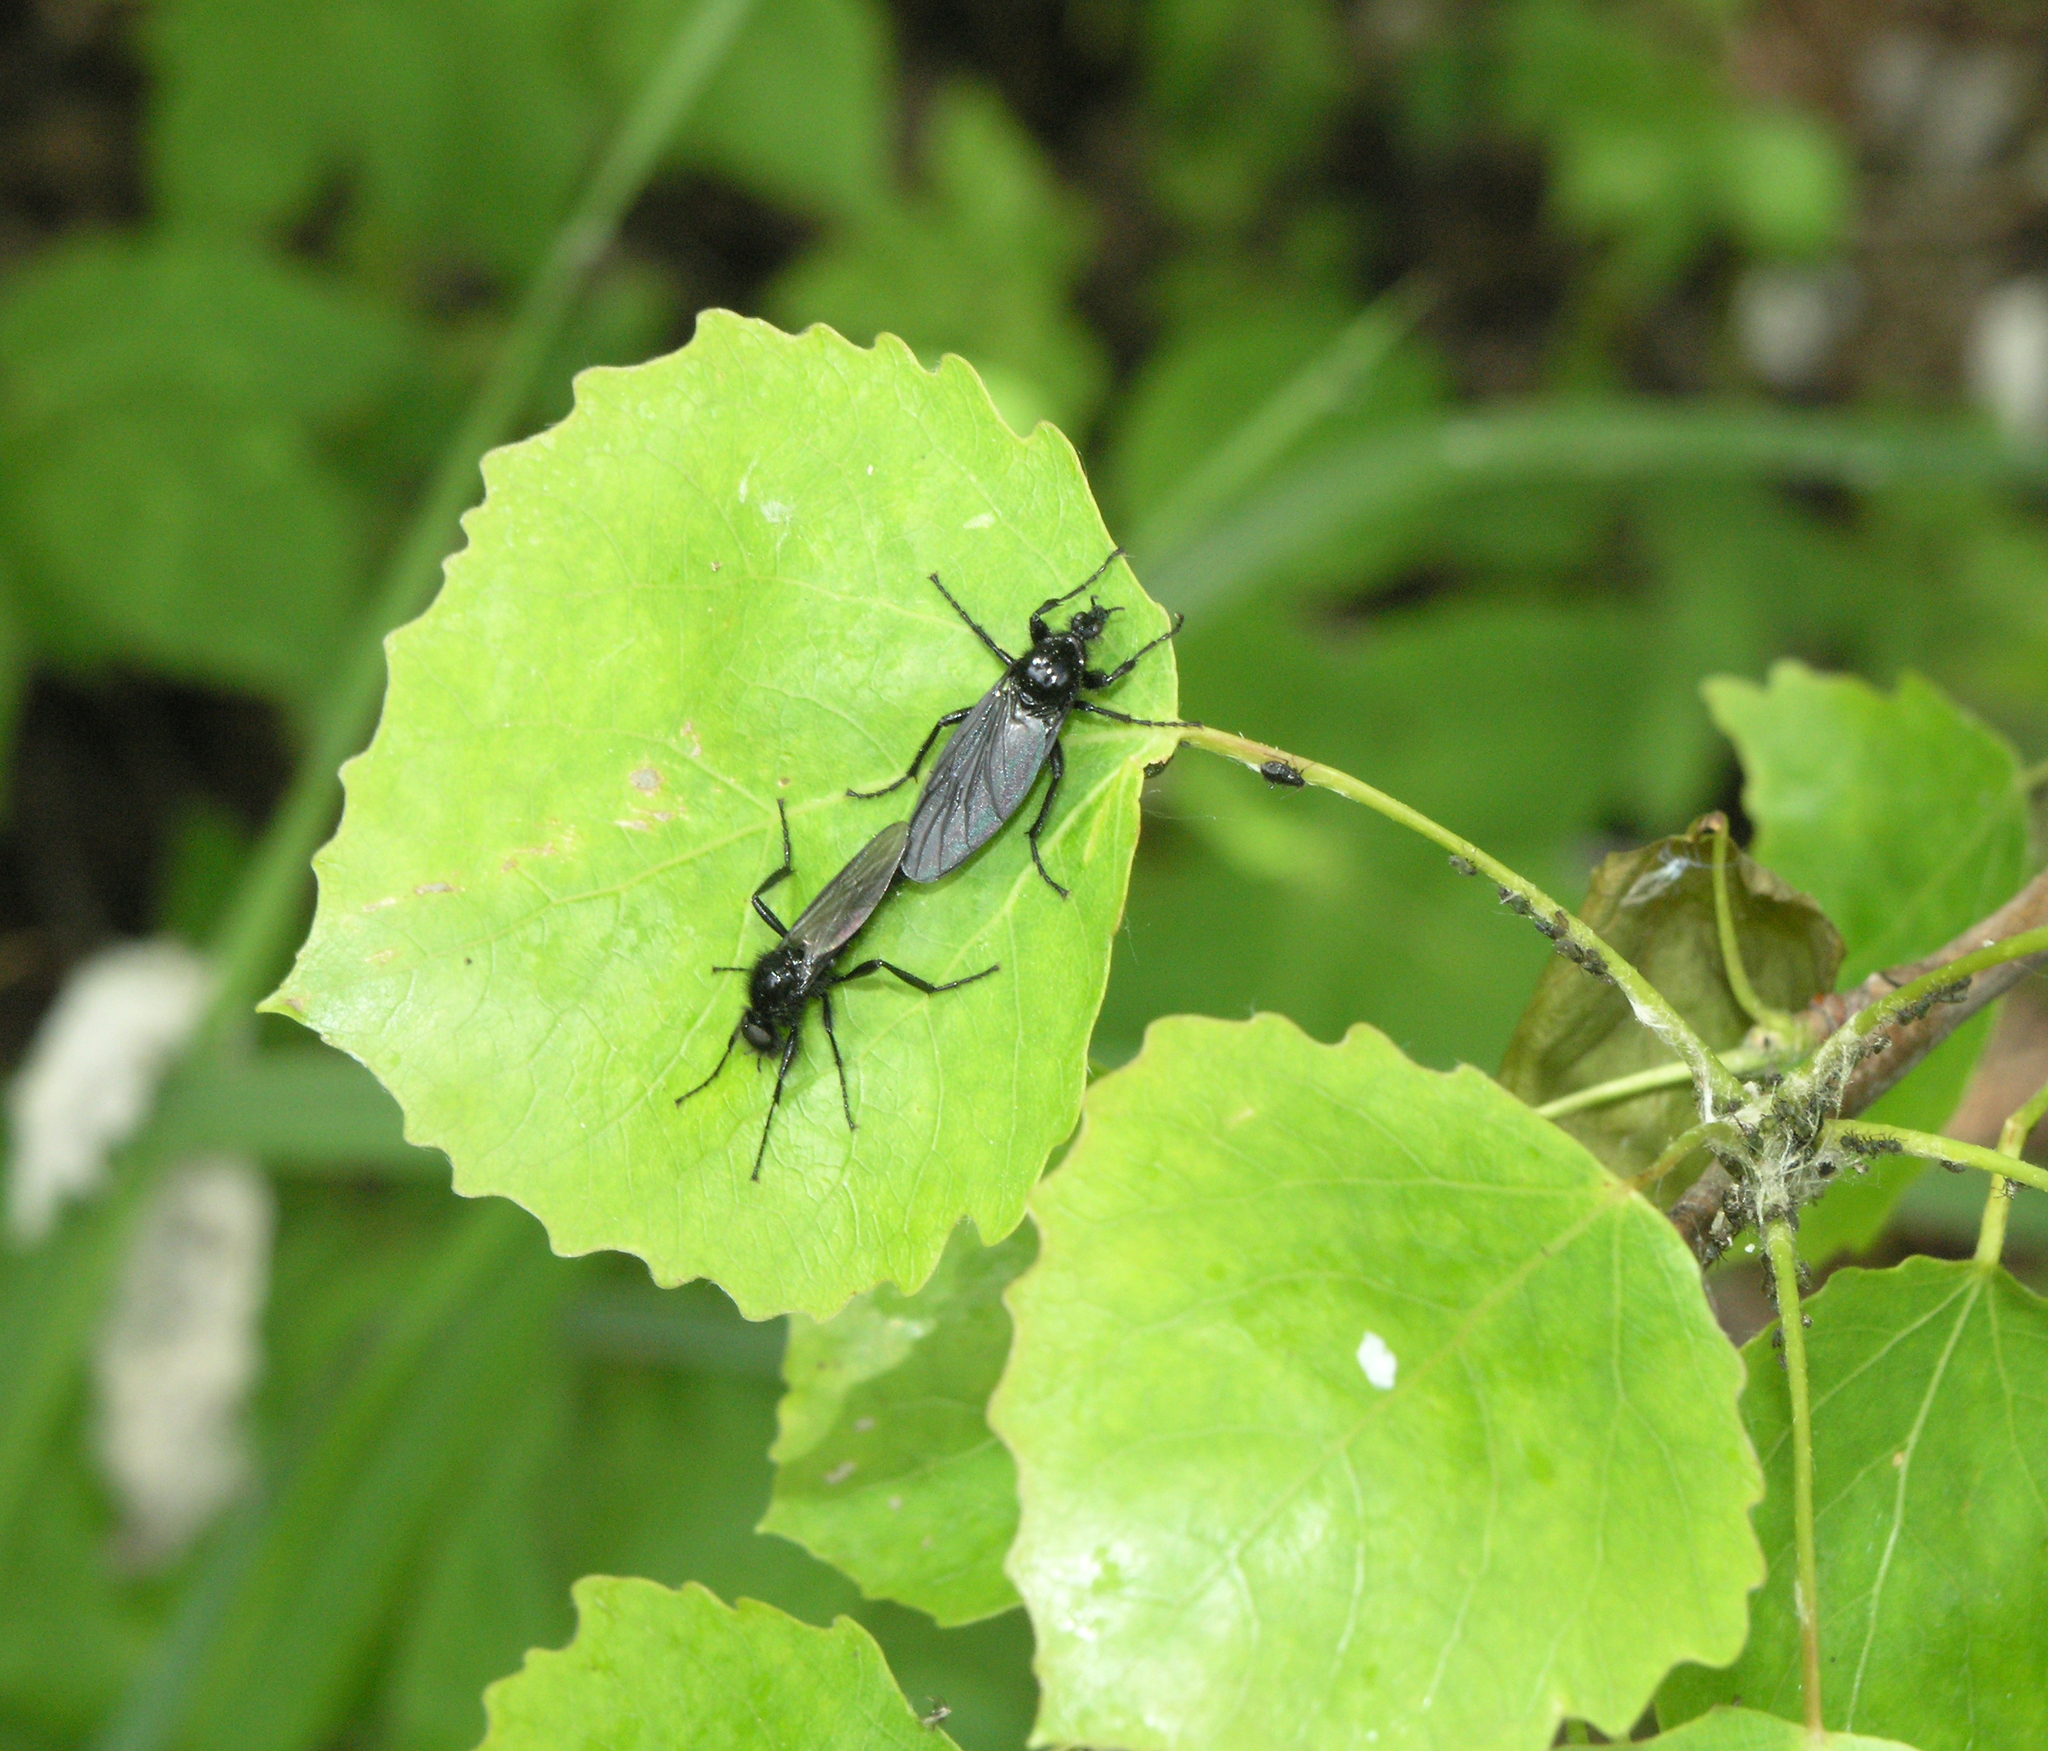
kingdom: Plantae
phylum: Tracheophyta
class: Magnoliopsida
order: Malpighiales
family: Salicaceae
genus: Populus
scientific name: Populus tremula
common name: European aspen
